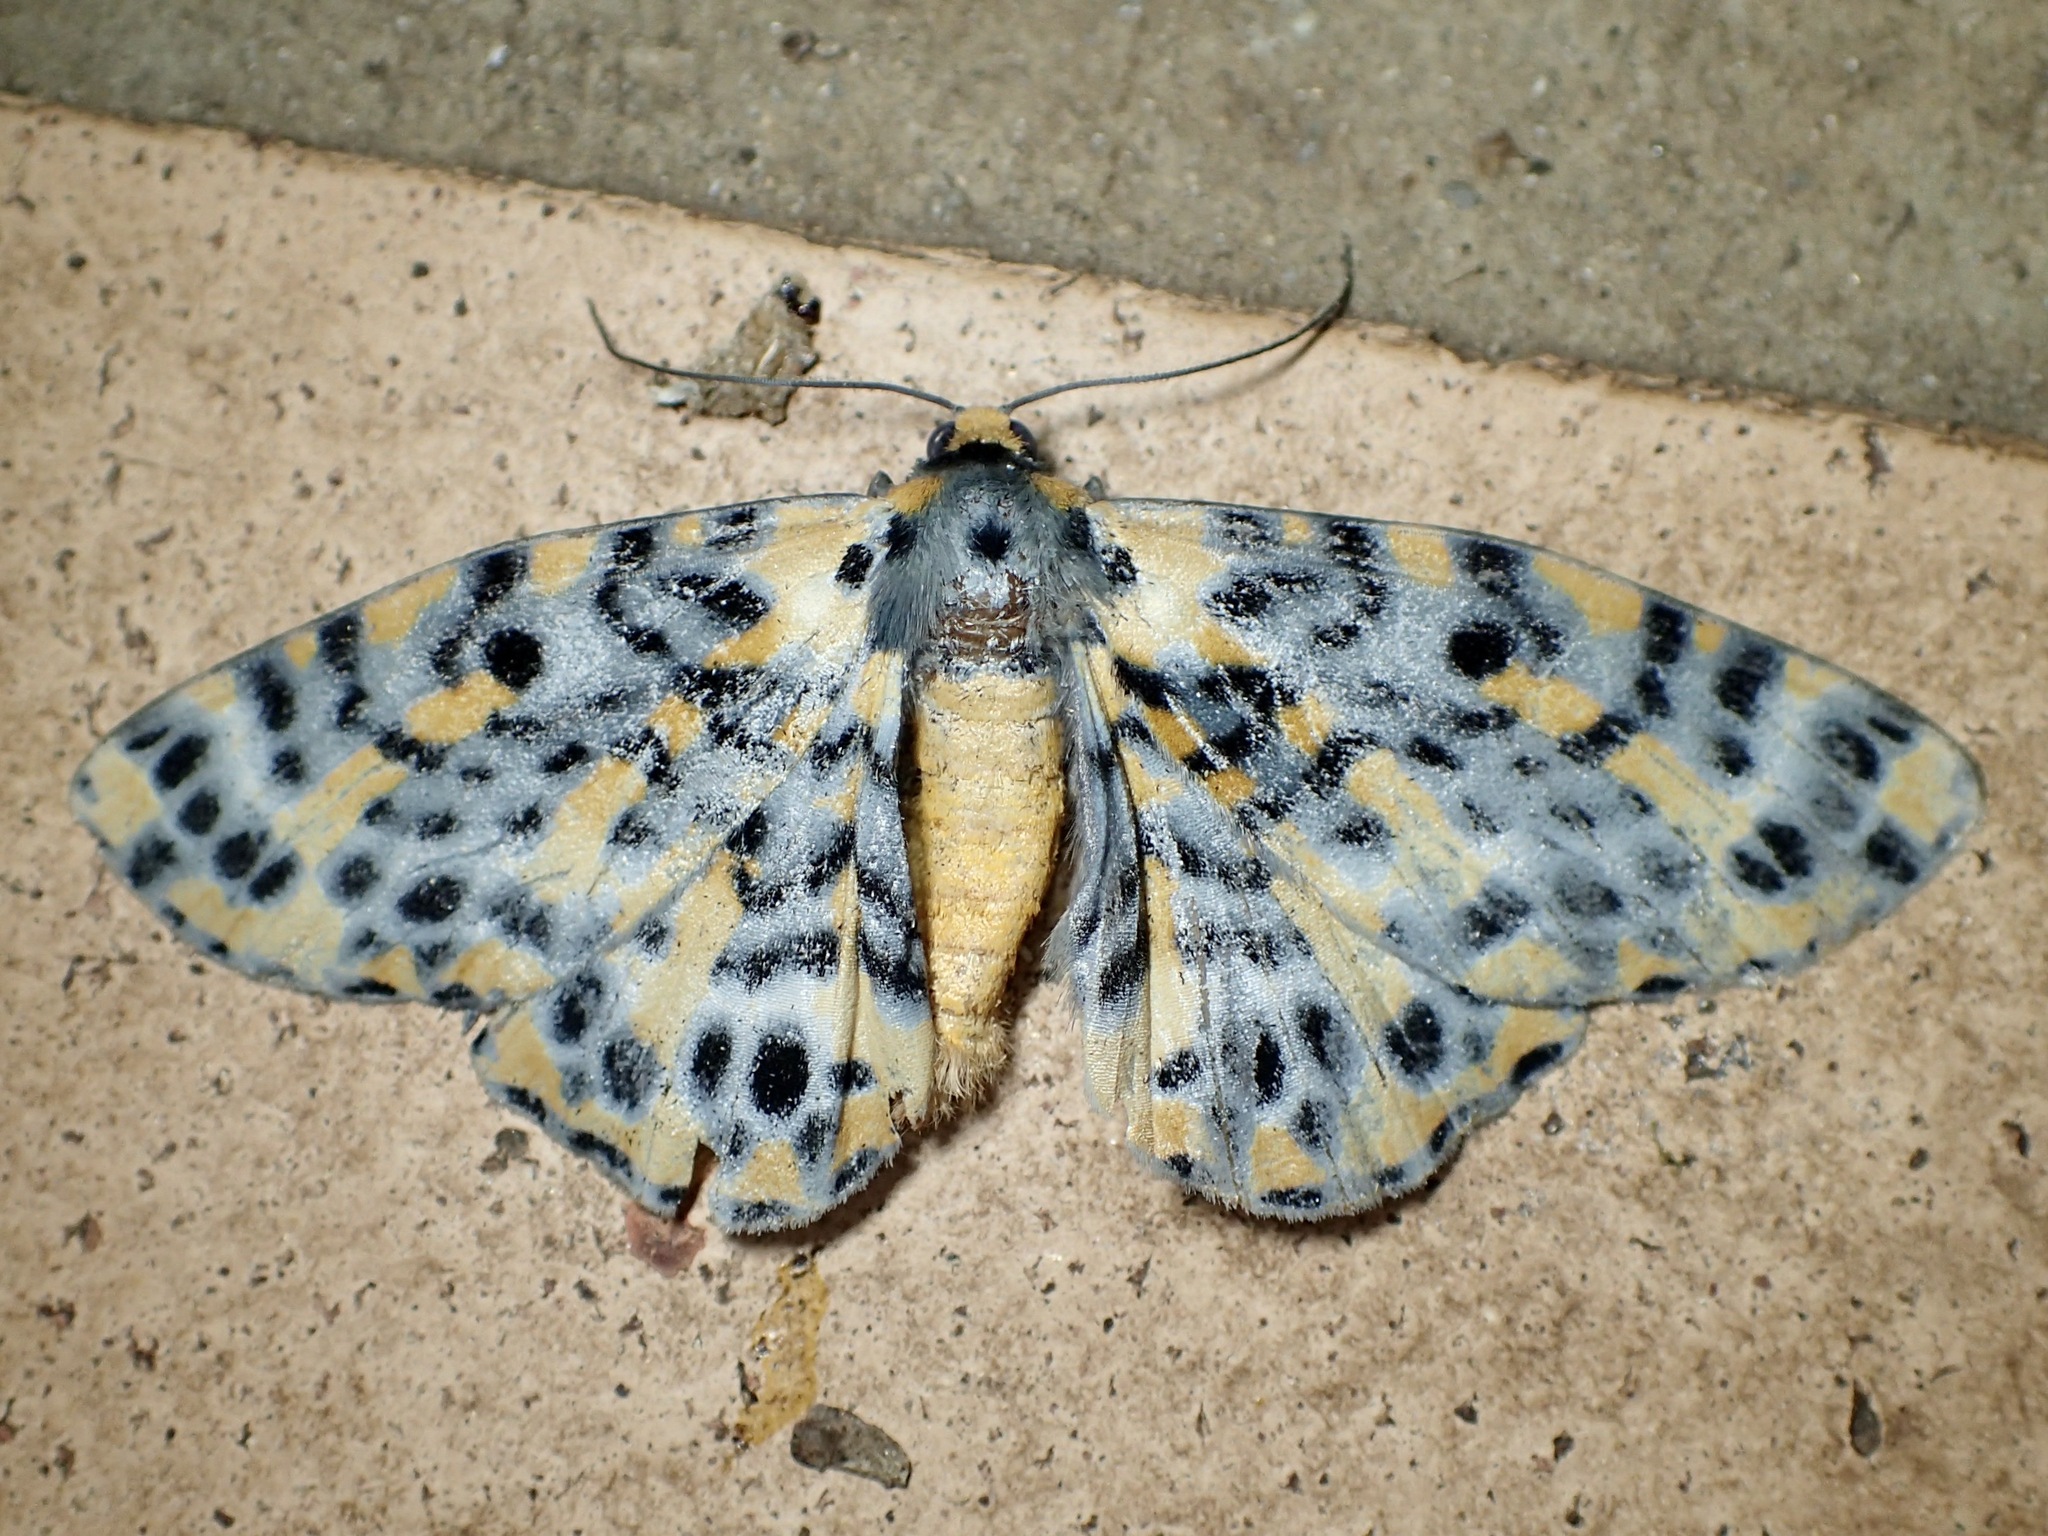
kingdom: Animalia
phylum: Arthropoda
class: Insecta
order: Lepidoptera
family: Geometridae
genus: Bracca
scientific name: Bracca matutinata
